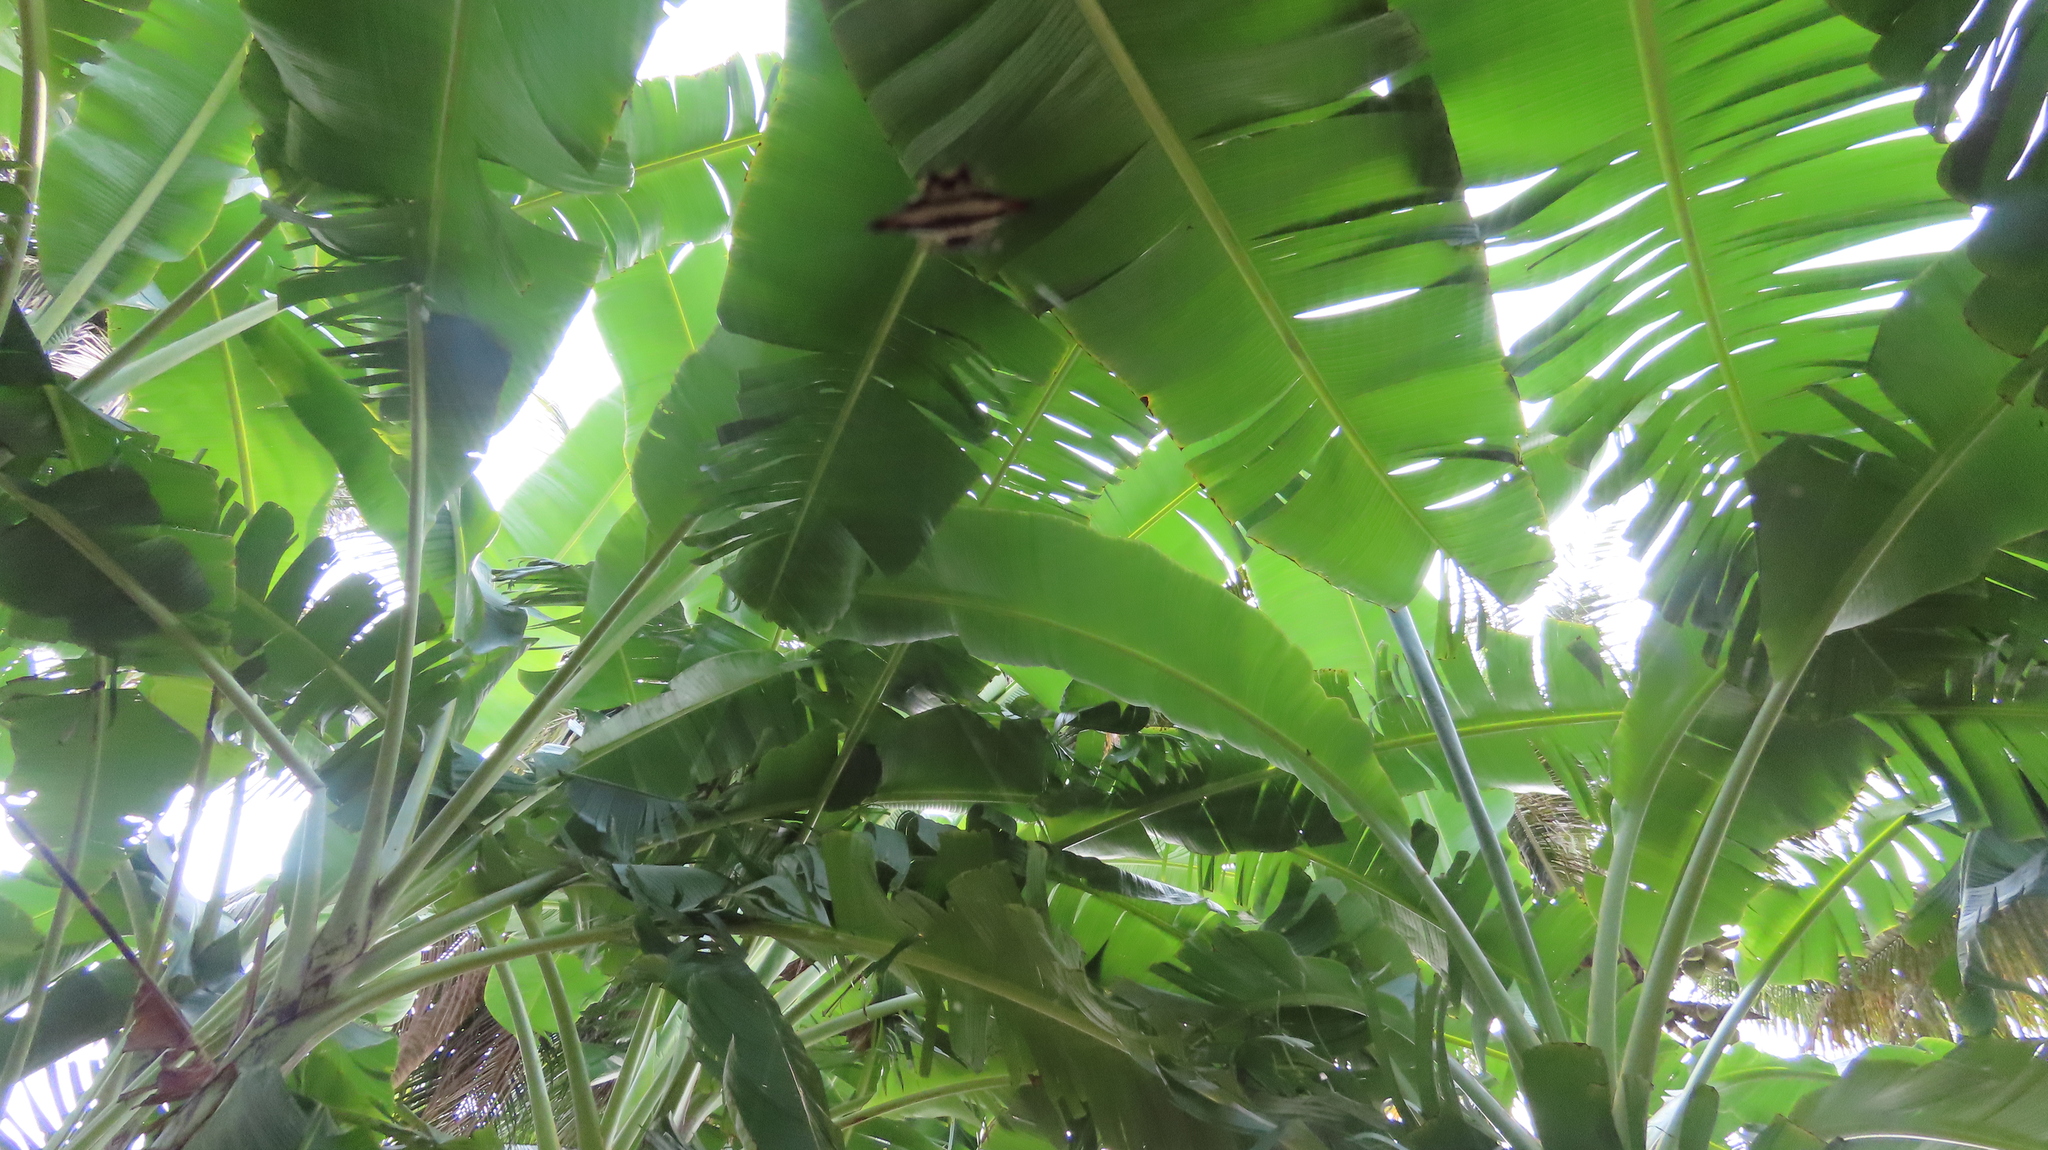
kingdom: Animalia
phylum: Arthropoda
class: Arachnida
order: Araneae
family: Araneidae
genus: Gasteracantha
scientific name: Gasteracantha geminata
